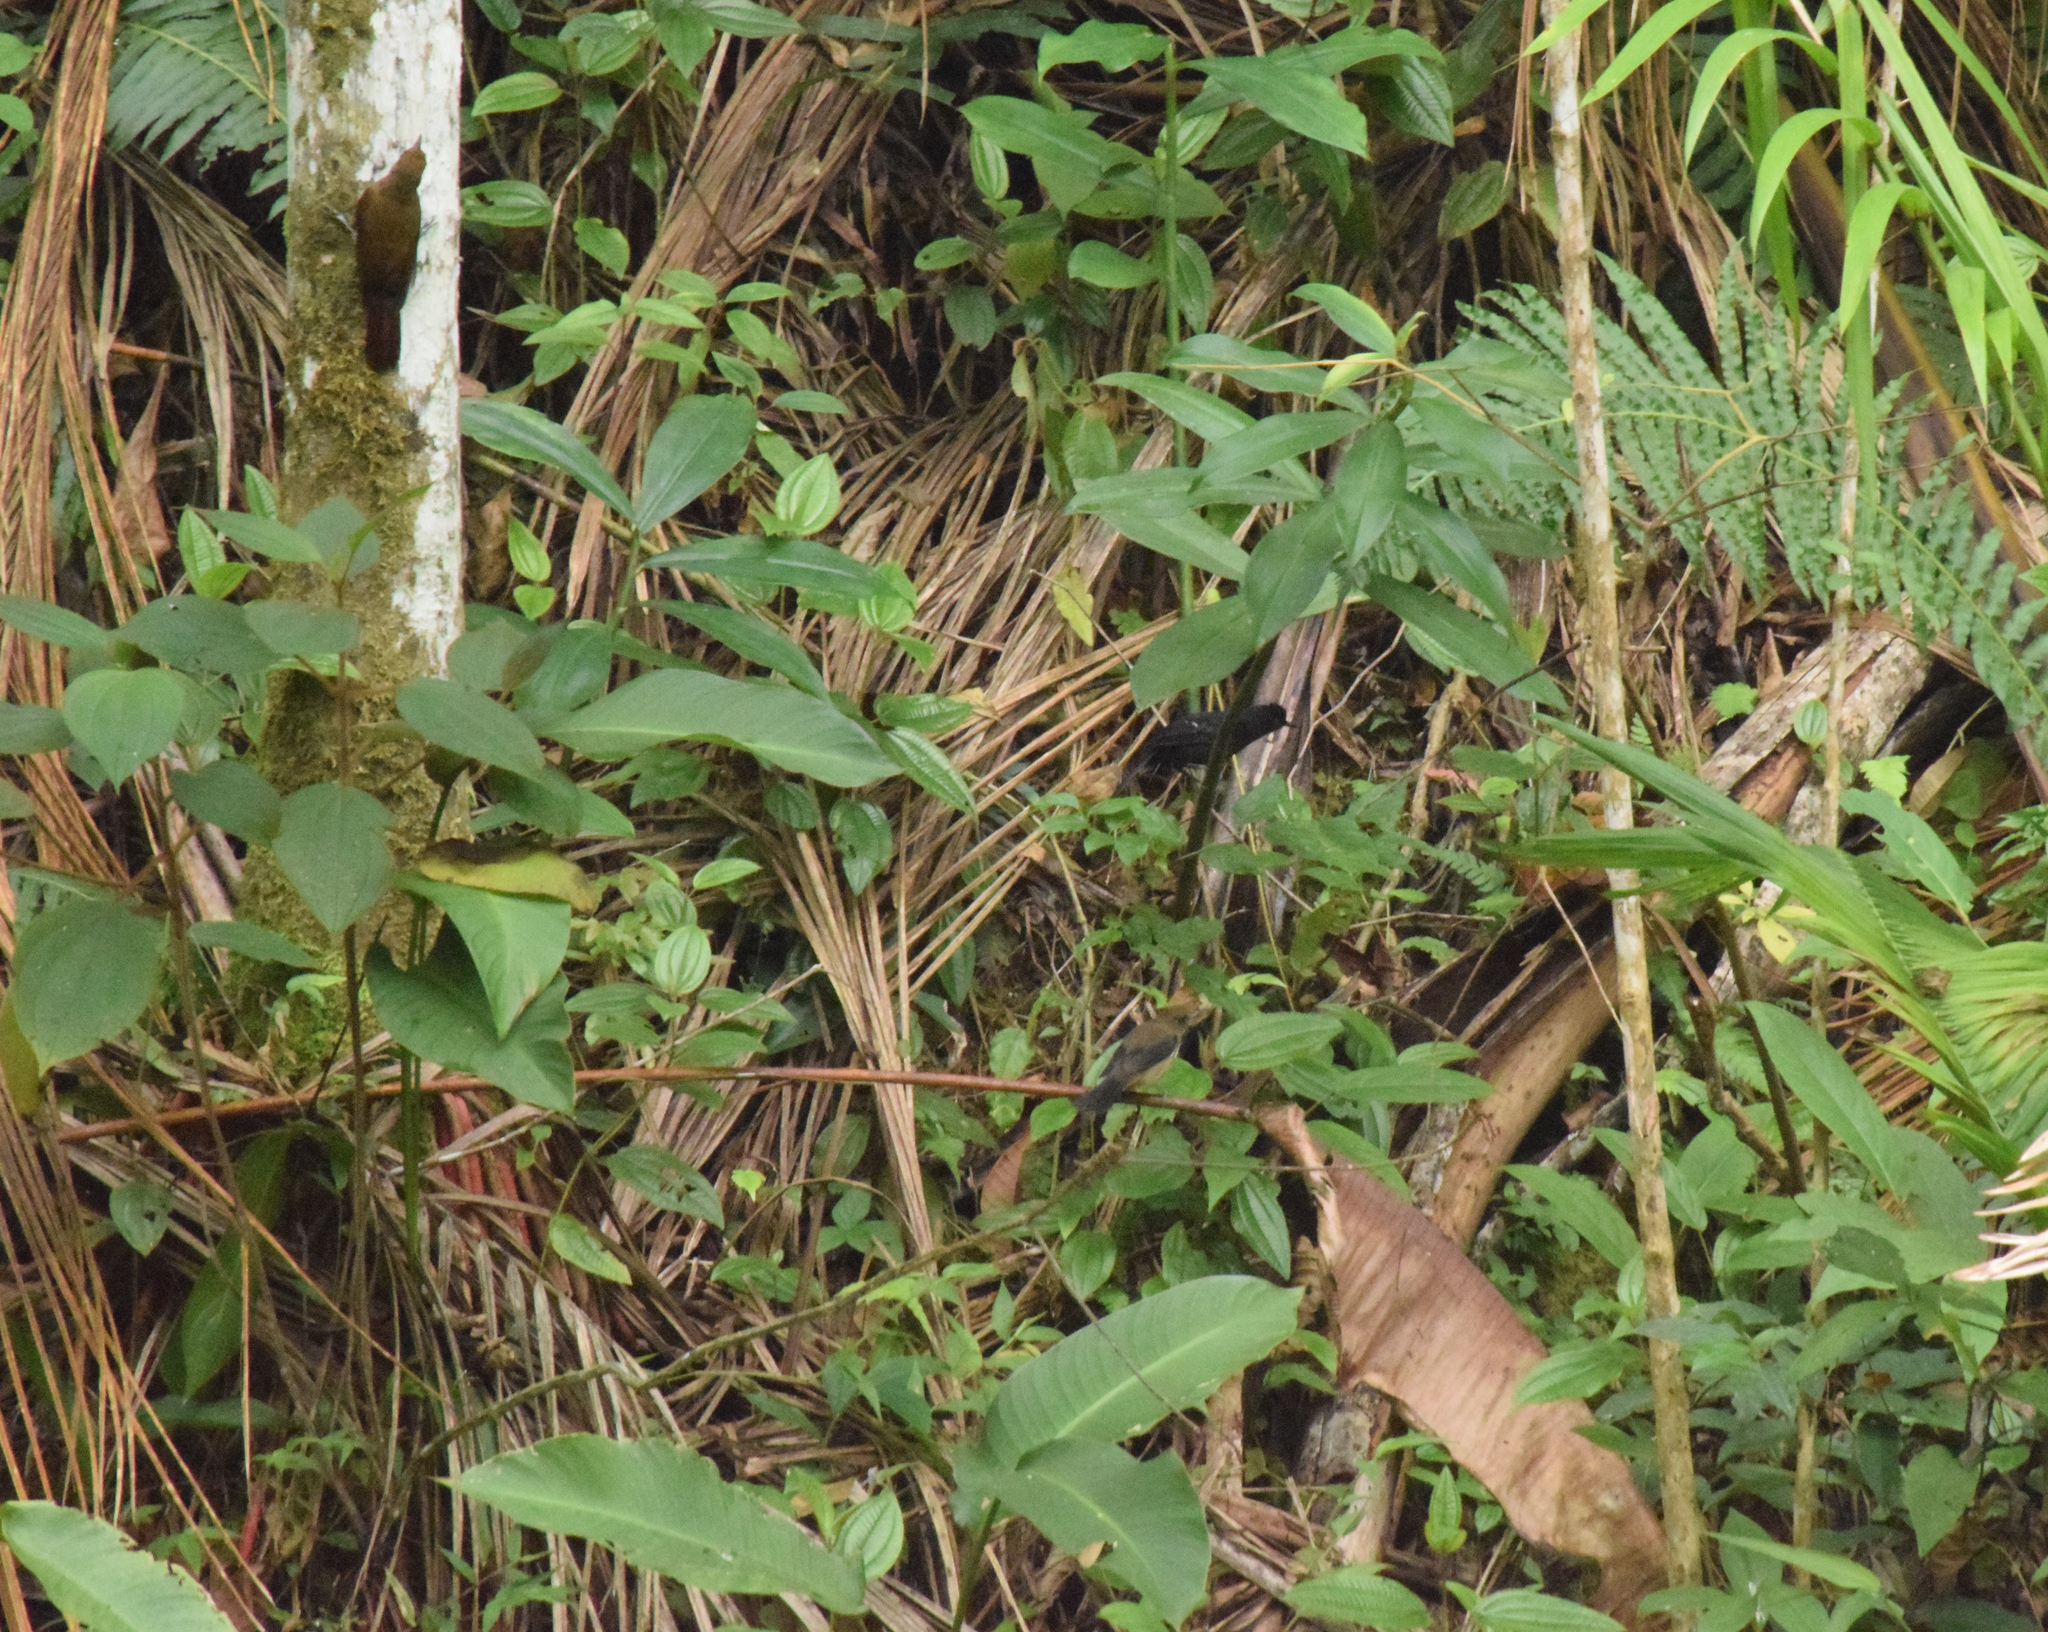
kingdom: Animalia
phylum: Chordata
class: Aves
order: Passeriformes
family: Thraupidae
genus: Trichothraupis
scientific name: Trichothraupis melanops
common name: Black-goggled tanager
